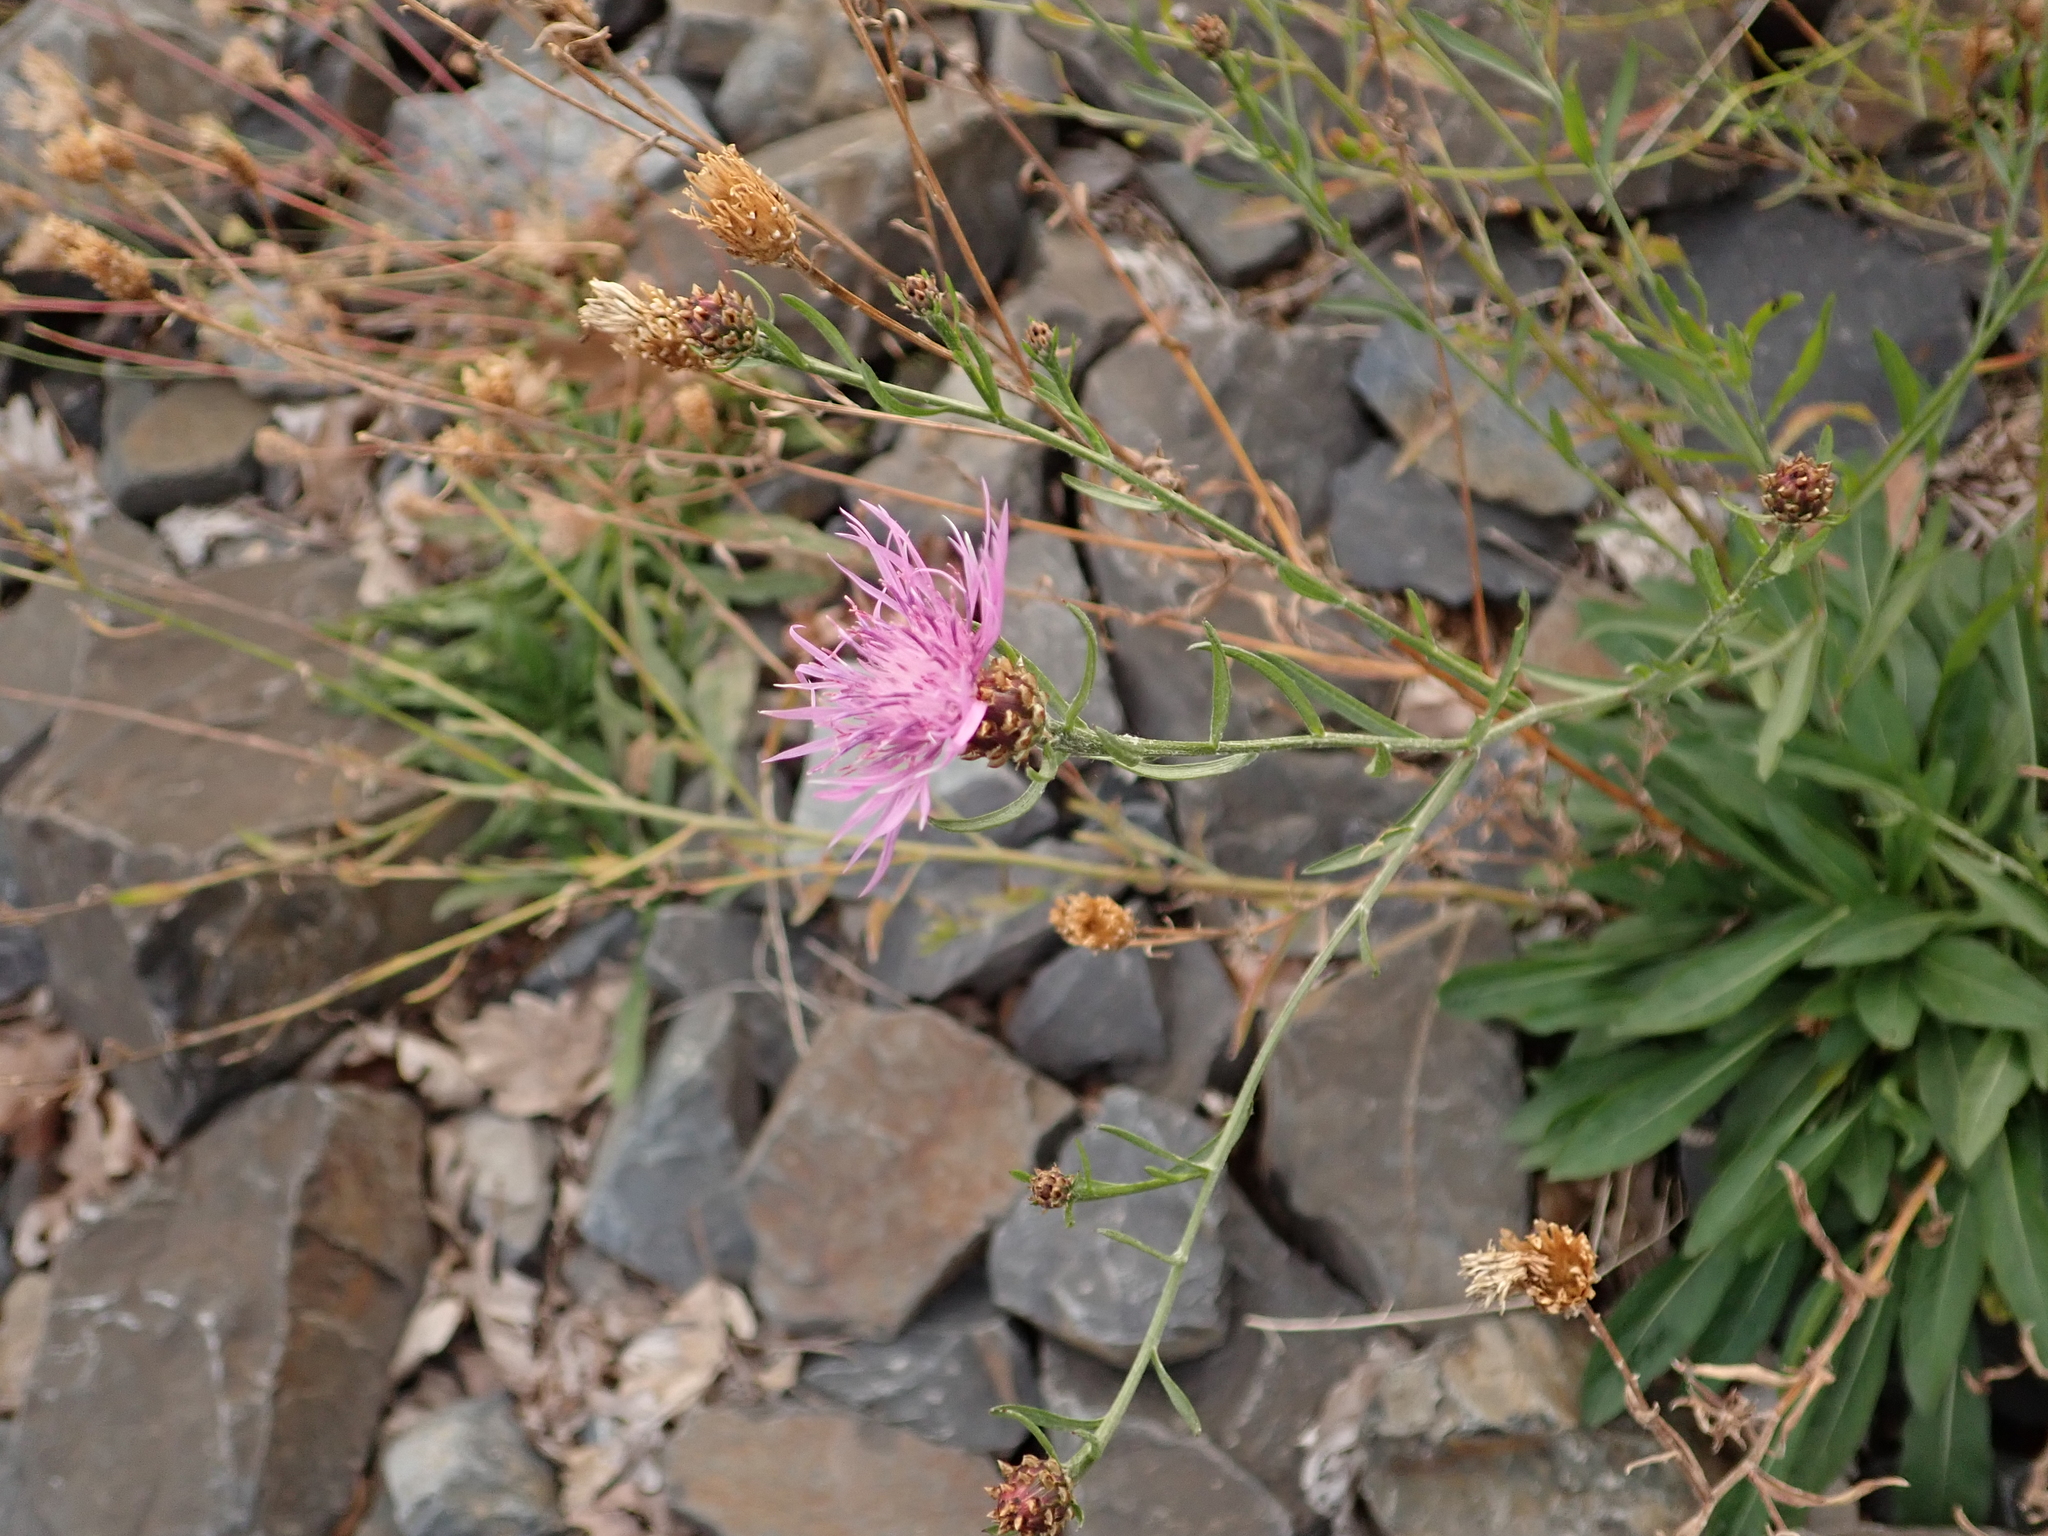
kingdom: Plantae
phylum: Tracheophyta
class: Magnoliopsida
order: Asterales
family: Asteraceae
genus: Centaurea
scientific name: Centaurea jacea
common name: Brown knapweed
